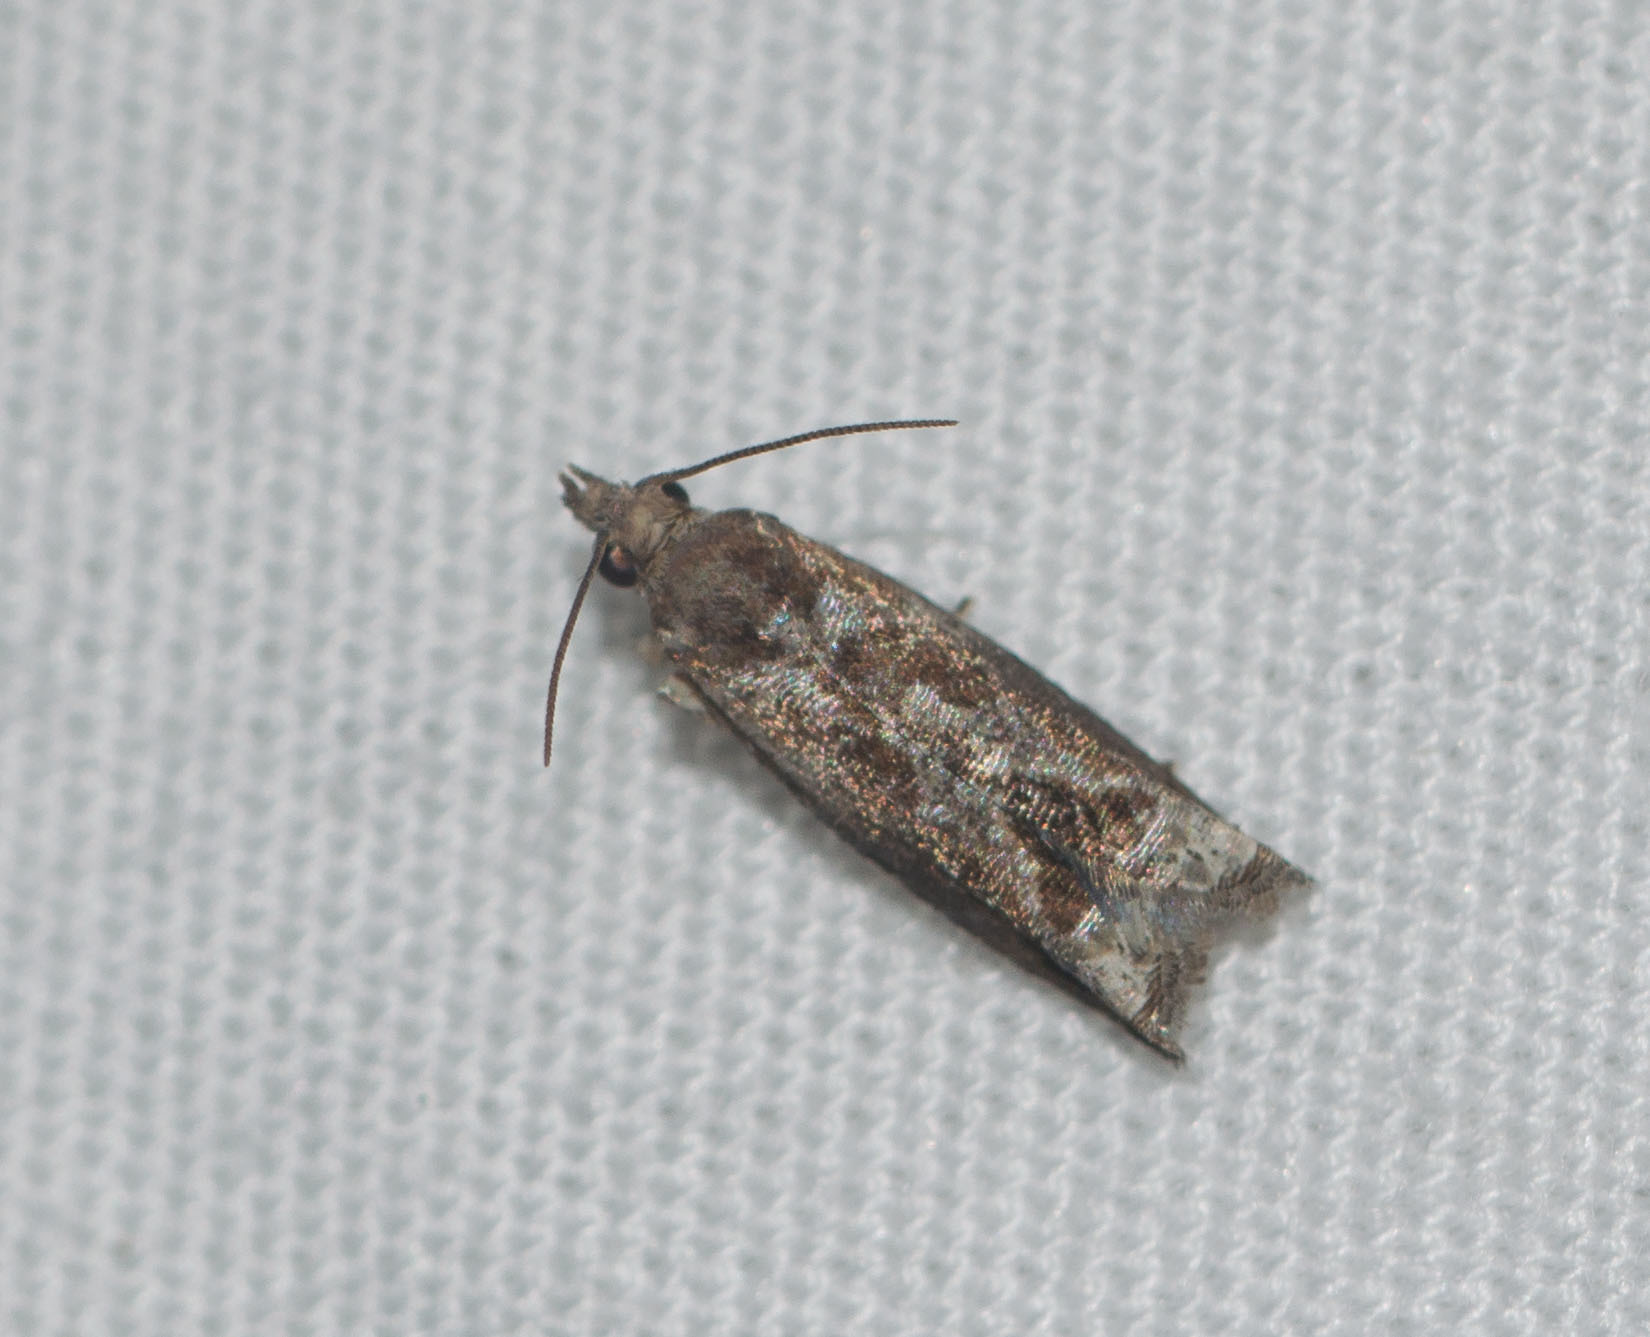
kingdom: Animalia
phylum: Arthropoda
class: Insecta
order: Lepidoptera
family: Tortricidae
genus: Crocidosema
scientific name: Crocidosema lantana
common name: Lantana flower-cluster moth
